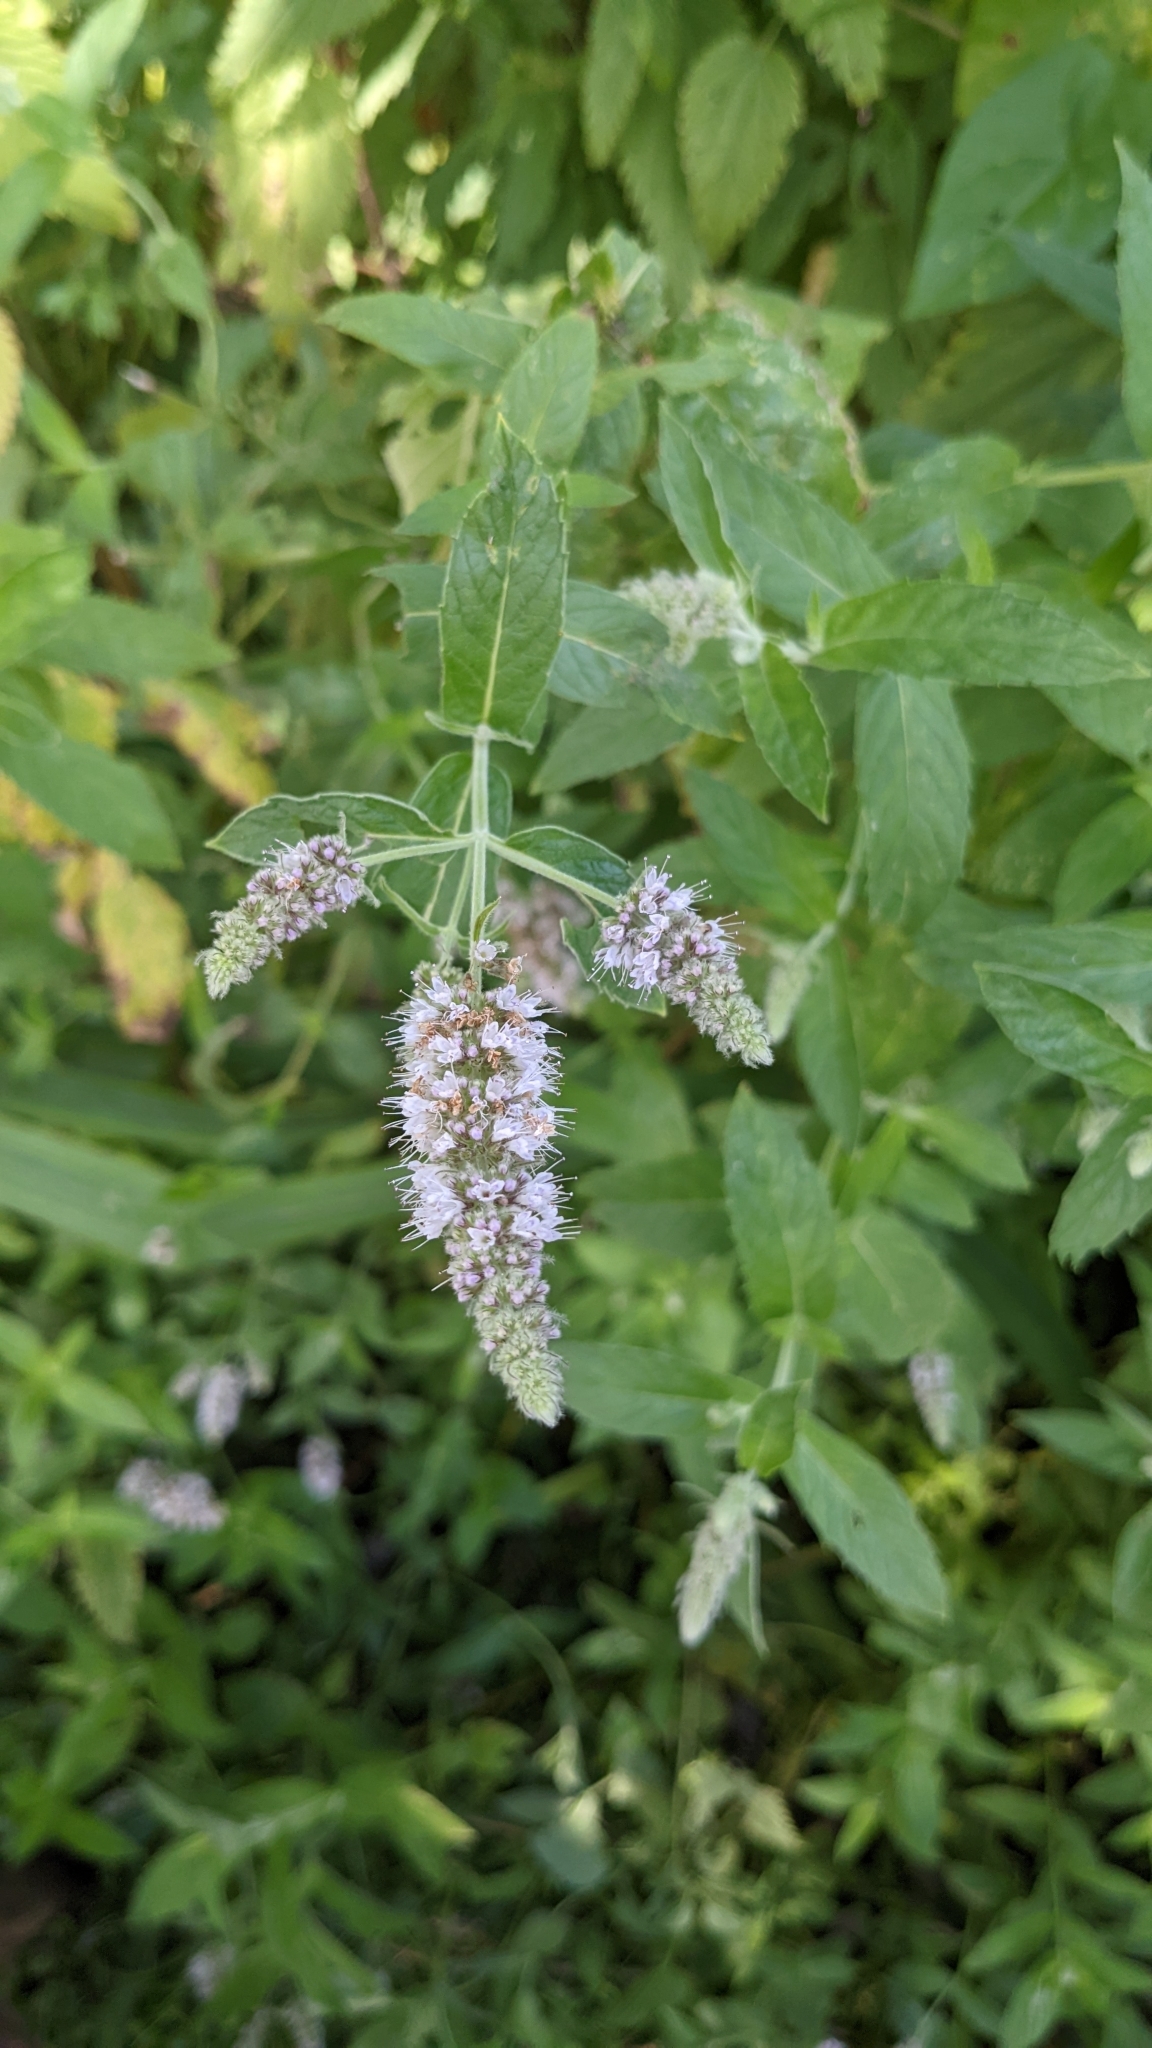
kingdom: Plantae
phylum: Tracheophyta
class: Magnoliopsida
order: Lamiales
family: Lamiaceae
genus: Mentha
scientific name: Mentha longifolia
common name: Horse mint
